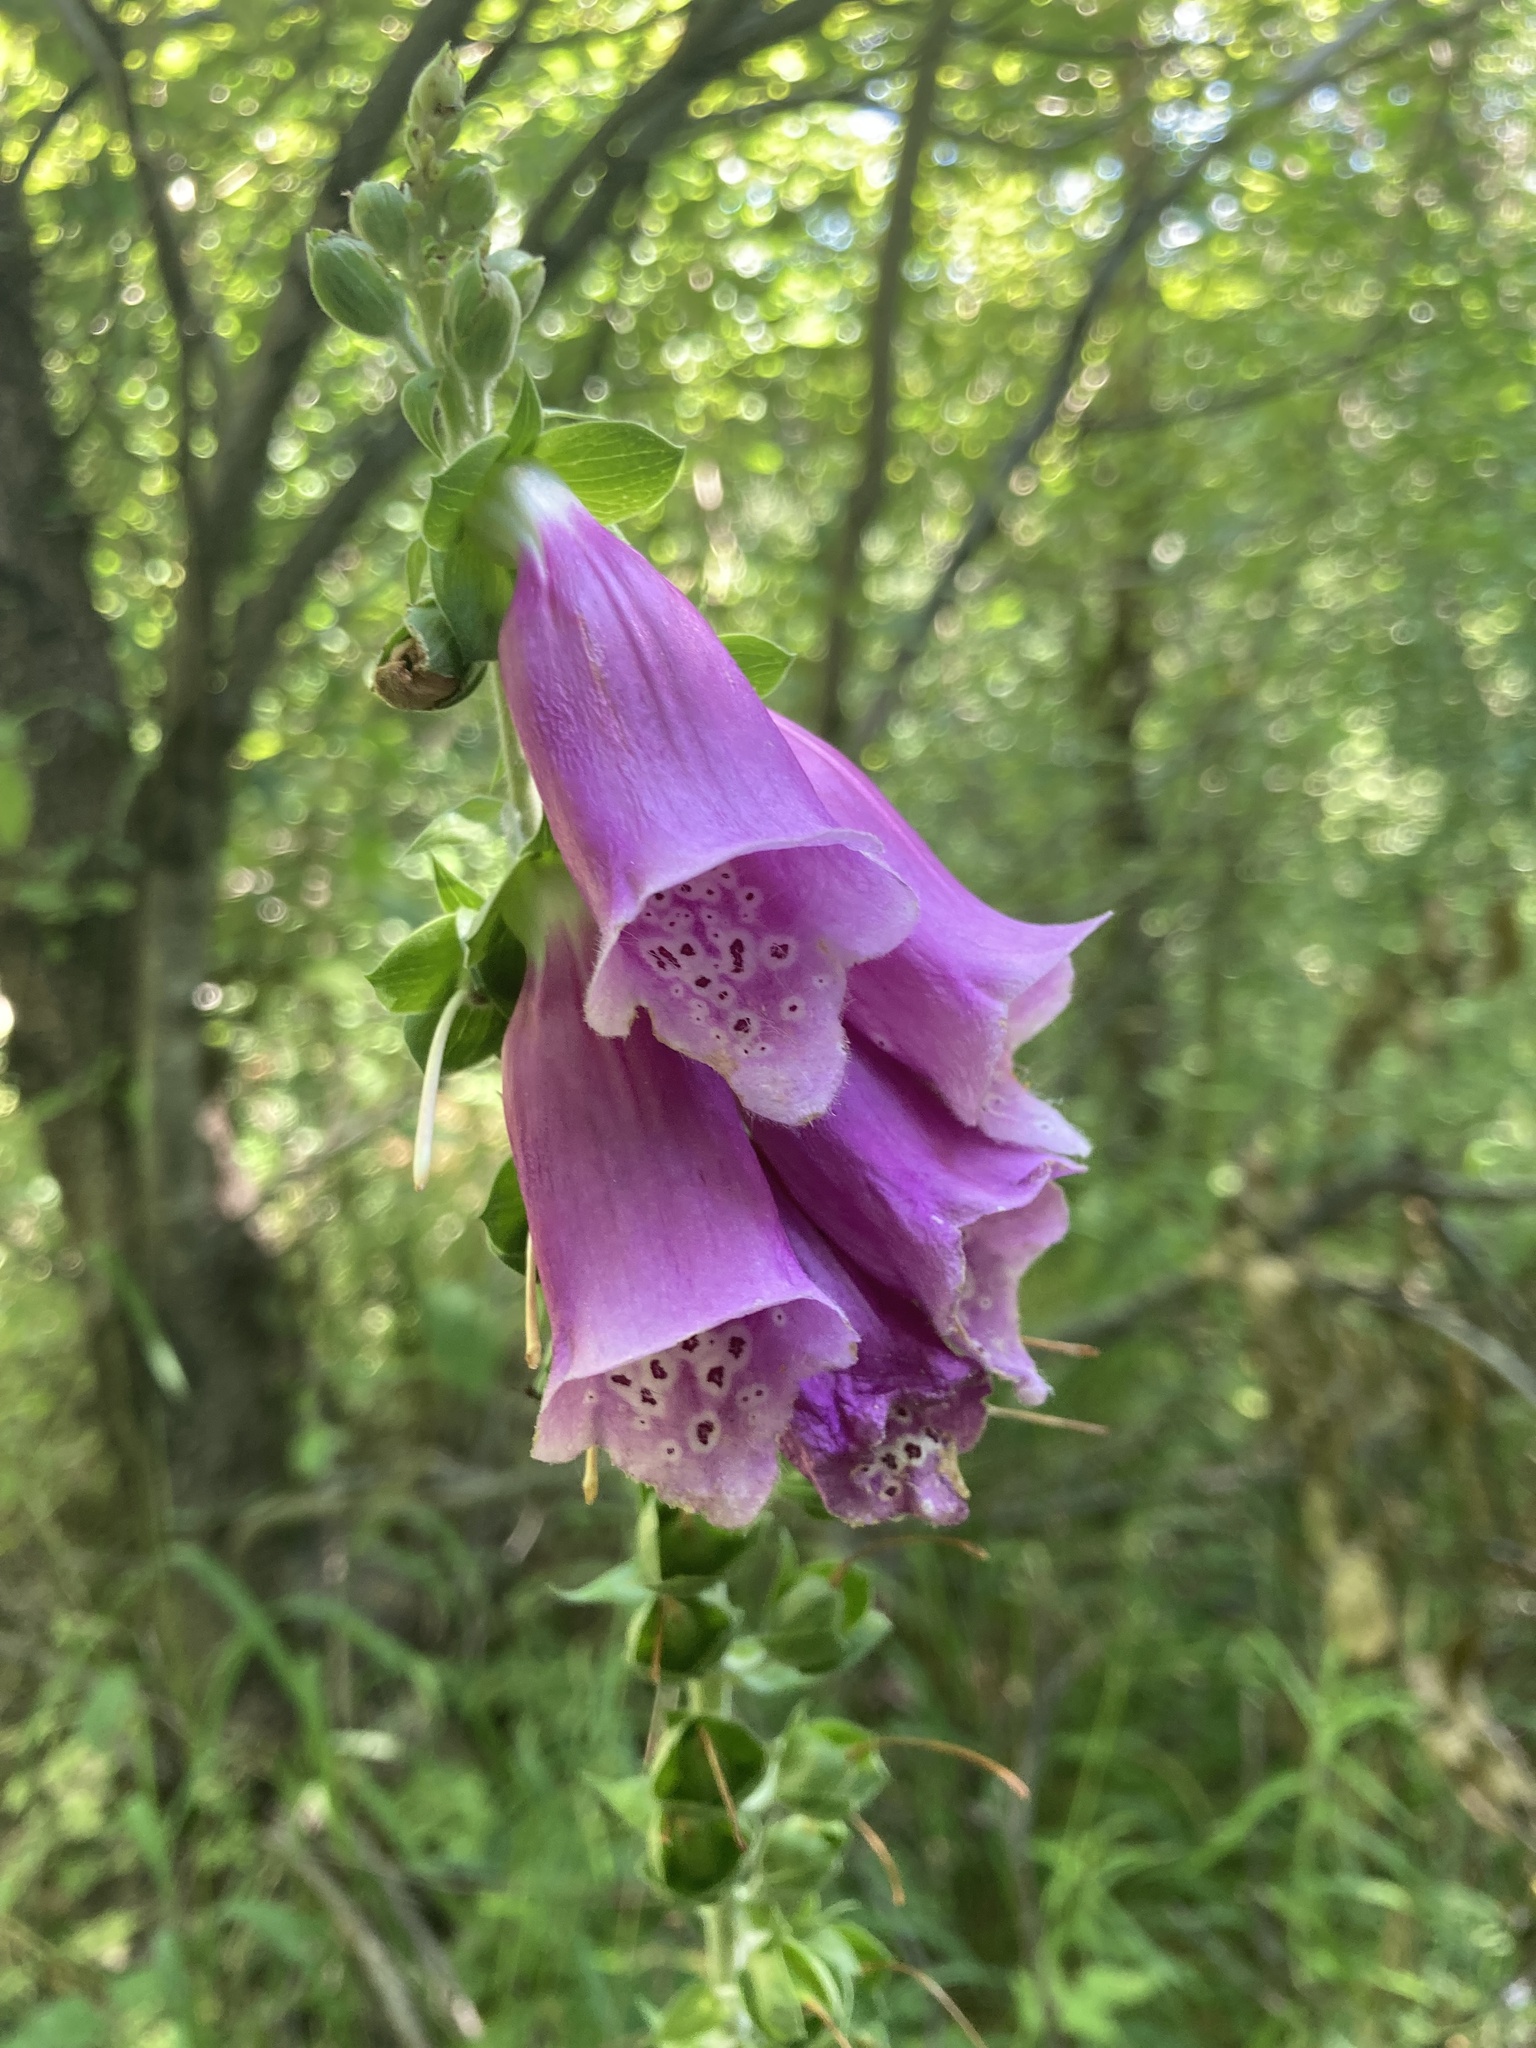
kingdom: Plantae
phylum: Tracheophyta
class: Magnoliopsida
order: Lamiales
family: Plantaginaceae
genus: Digitalis
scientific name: Digitalis purpurea
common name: Foxglove
